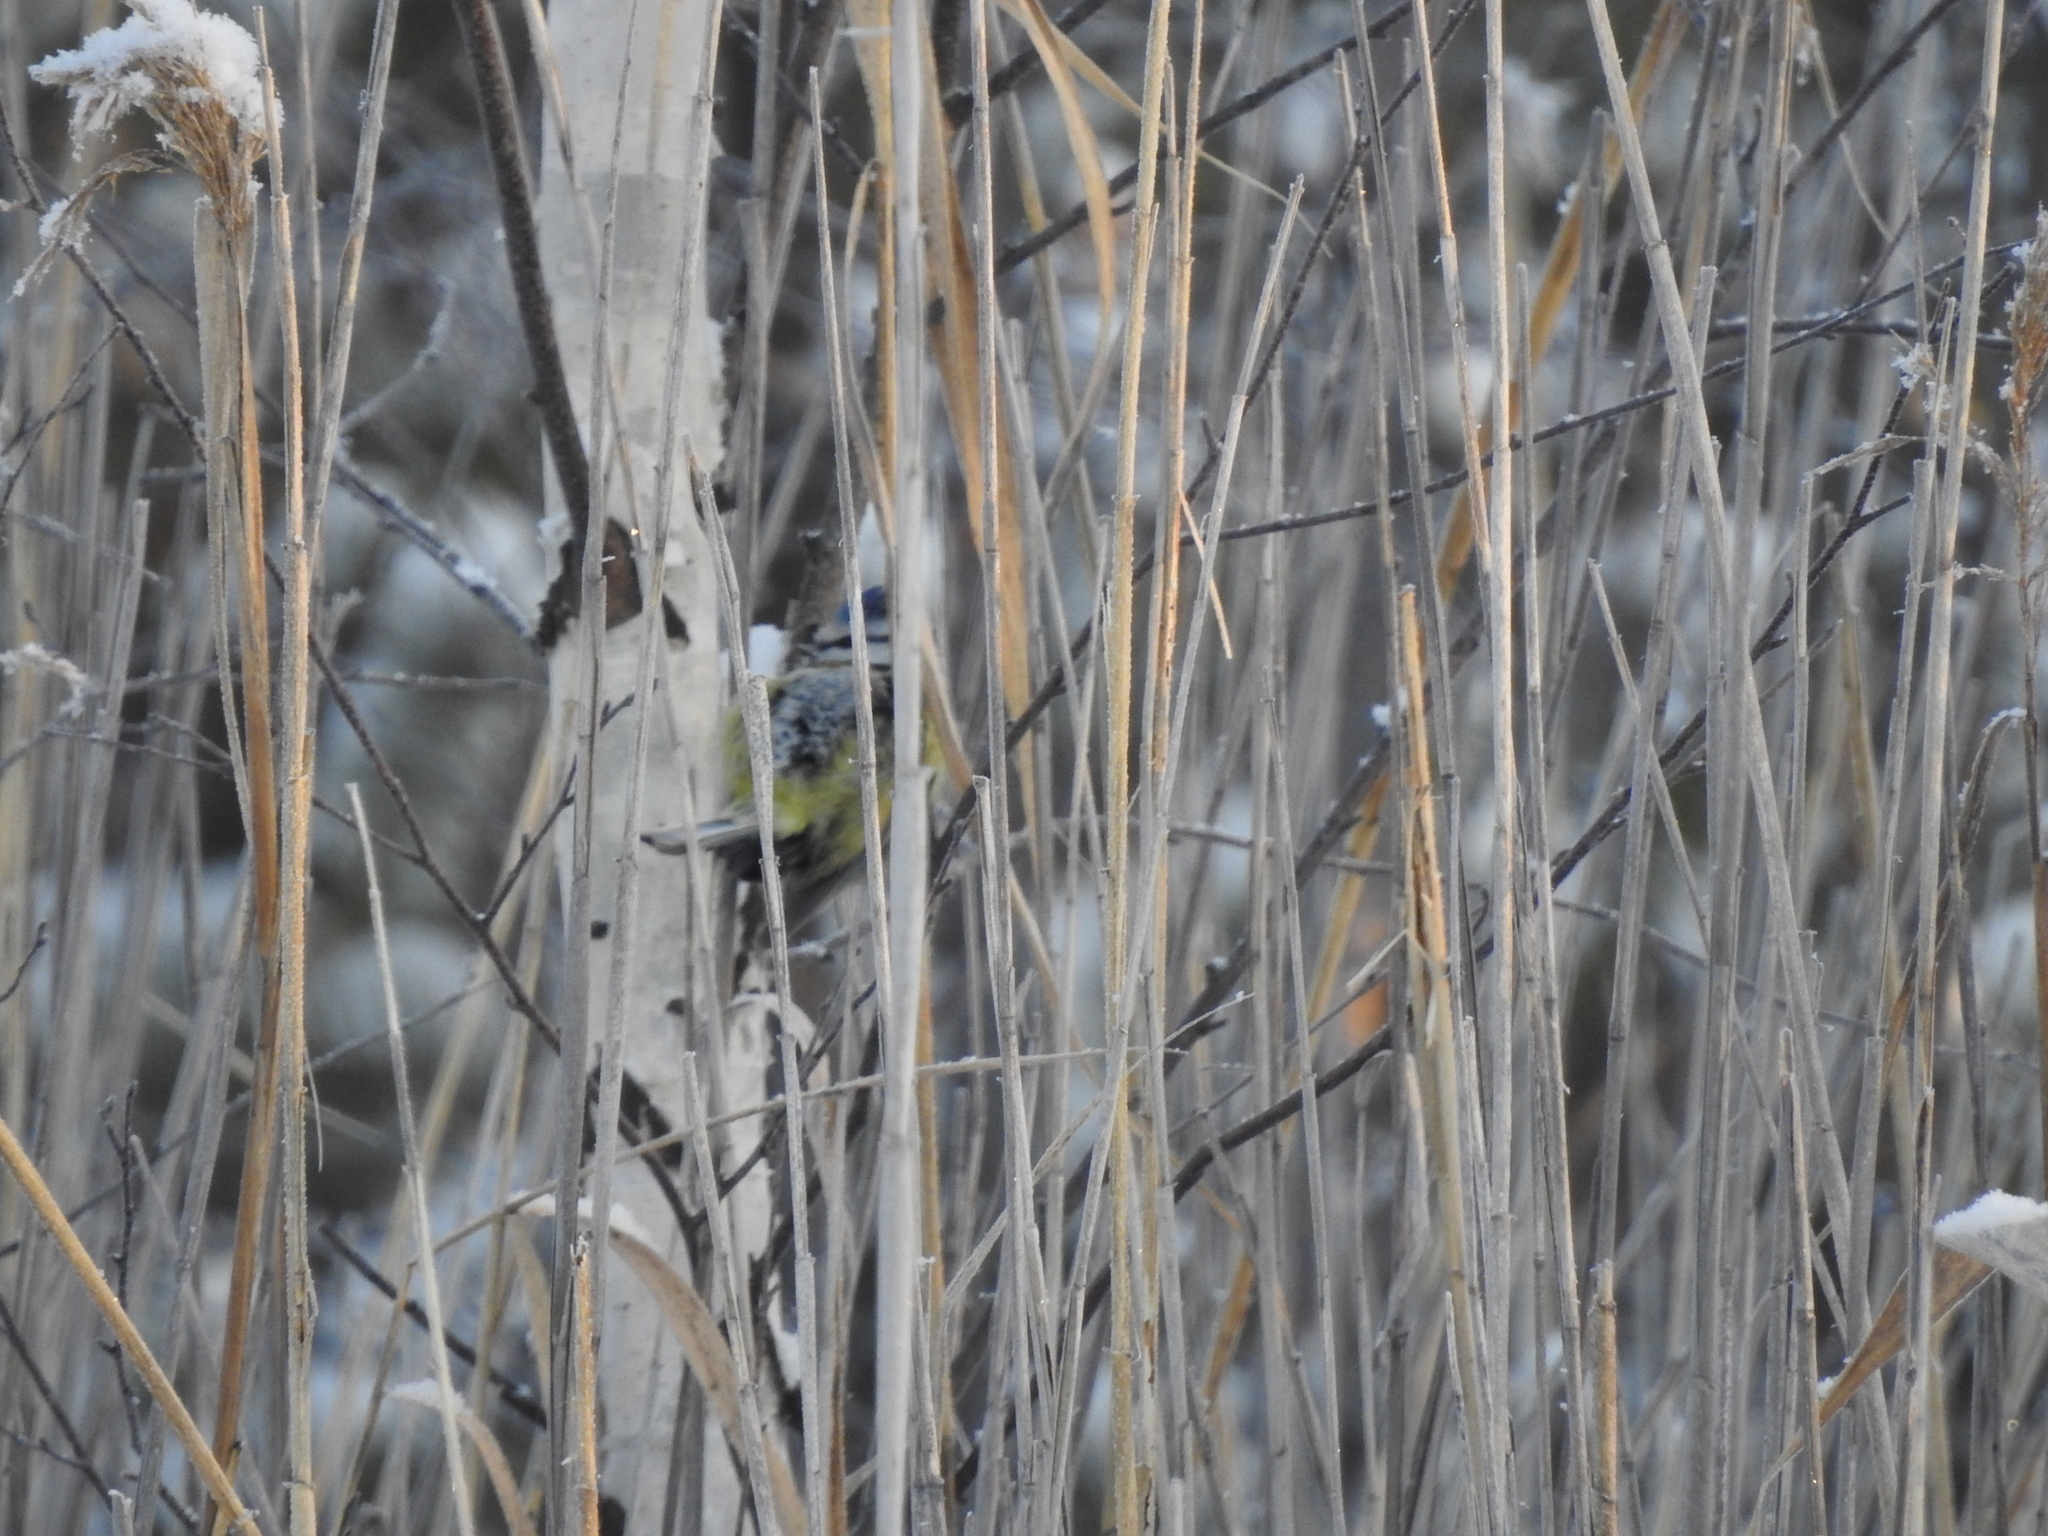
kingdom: Animalia
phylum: Chordata
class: Aves
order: Passeriformes
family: Paridae
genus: Cyanistes
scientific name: Cyanistes caeruleus
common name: Eurasian blue tit
